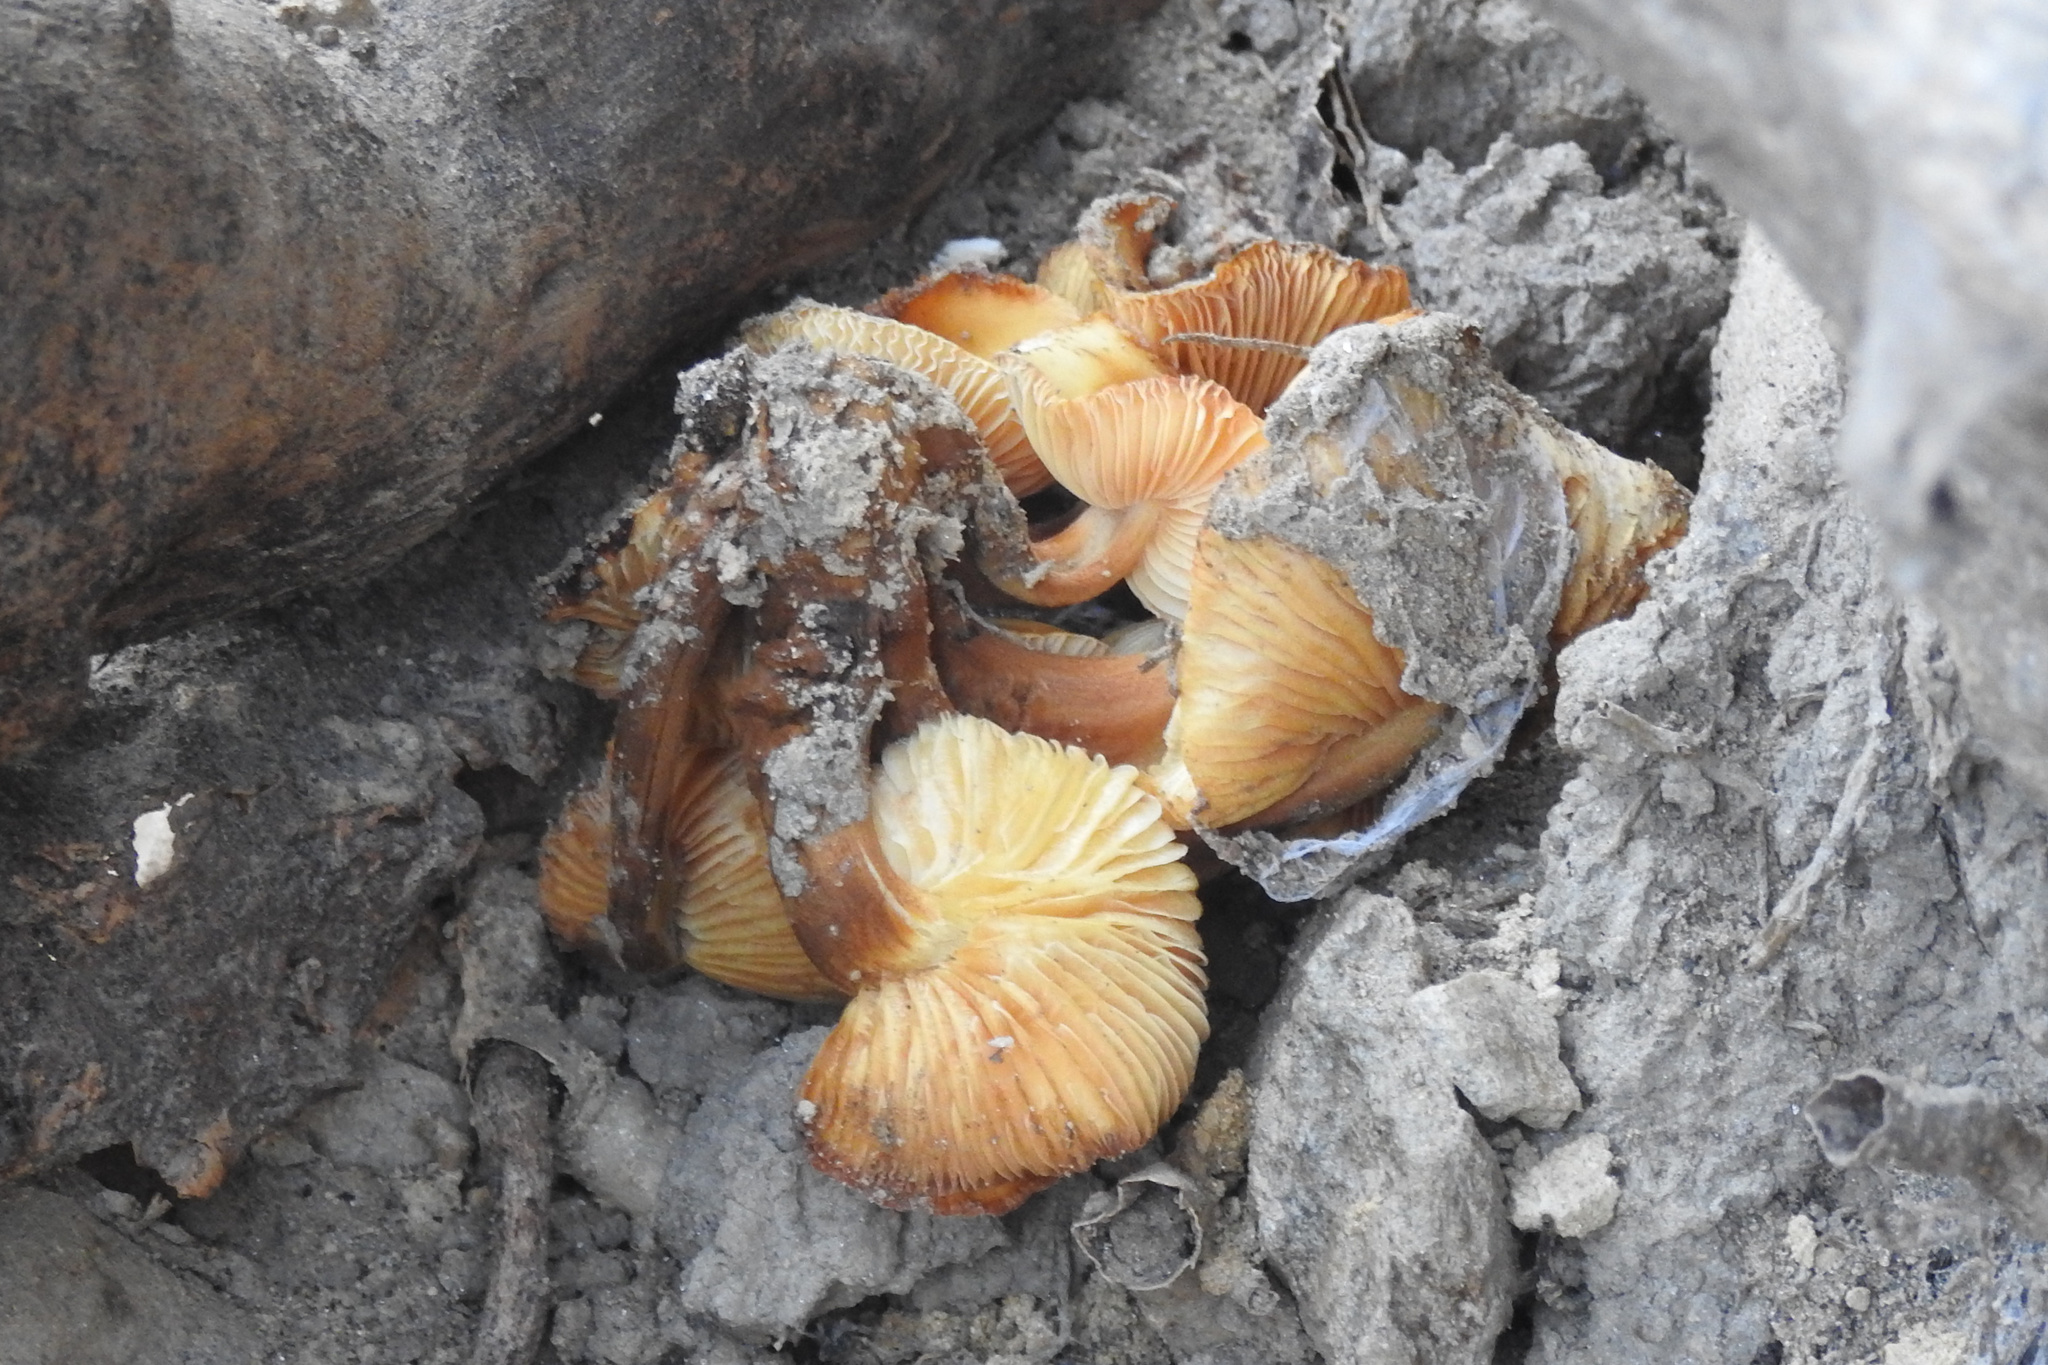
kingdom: Fungi
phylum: Basidiomycota
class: Agaricomycetes
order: Agaricales
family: Physalacriaceae
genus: Flammulina
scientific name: Flammulina velutipes
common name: Velvet shank
